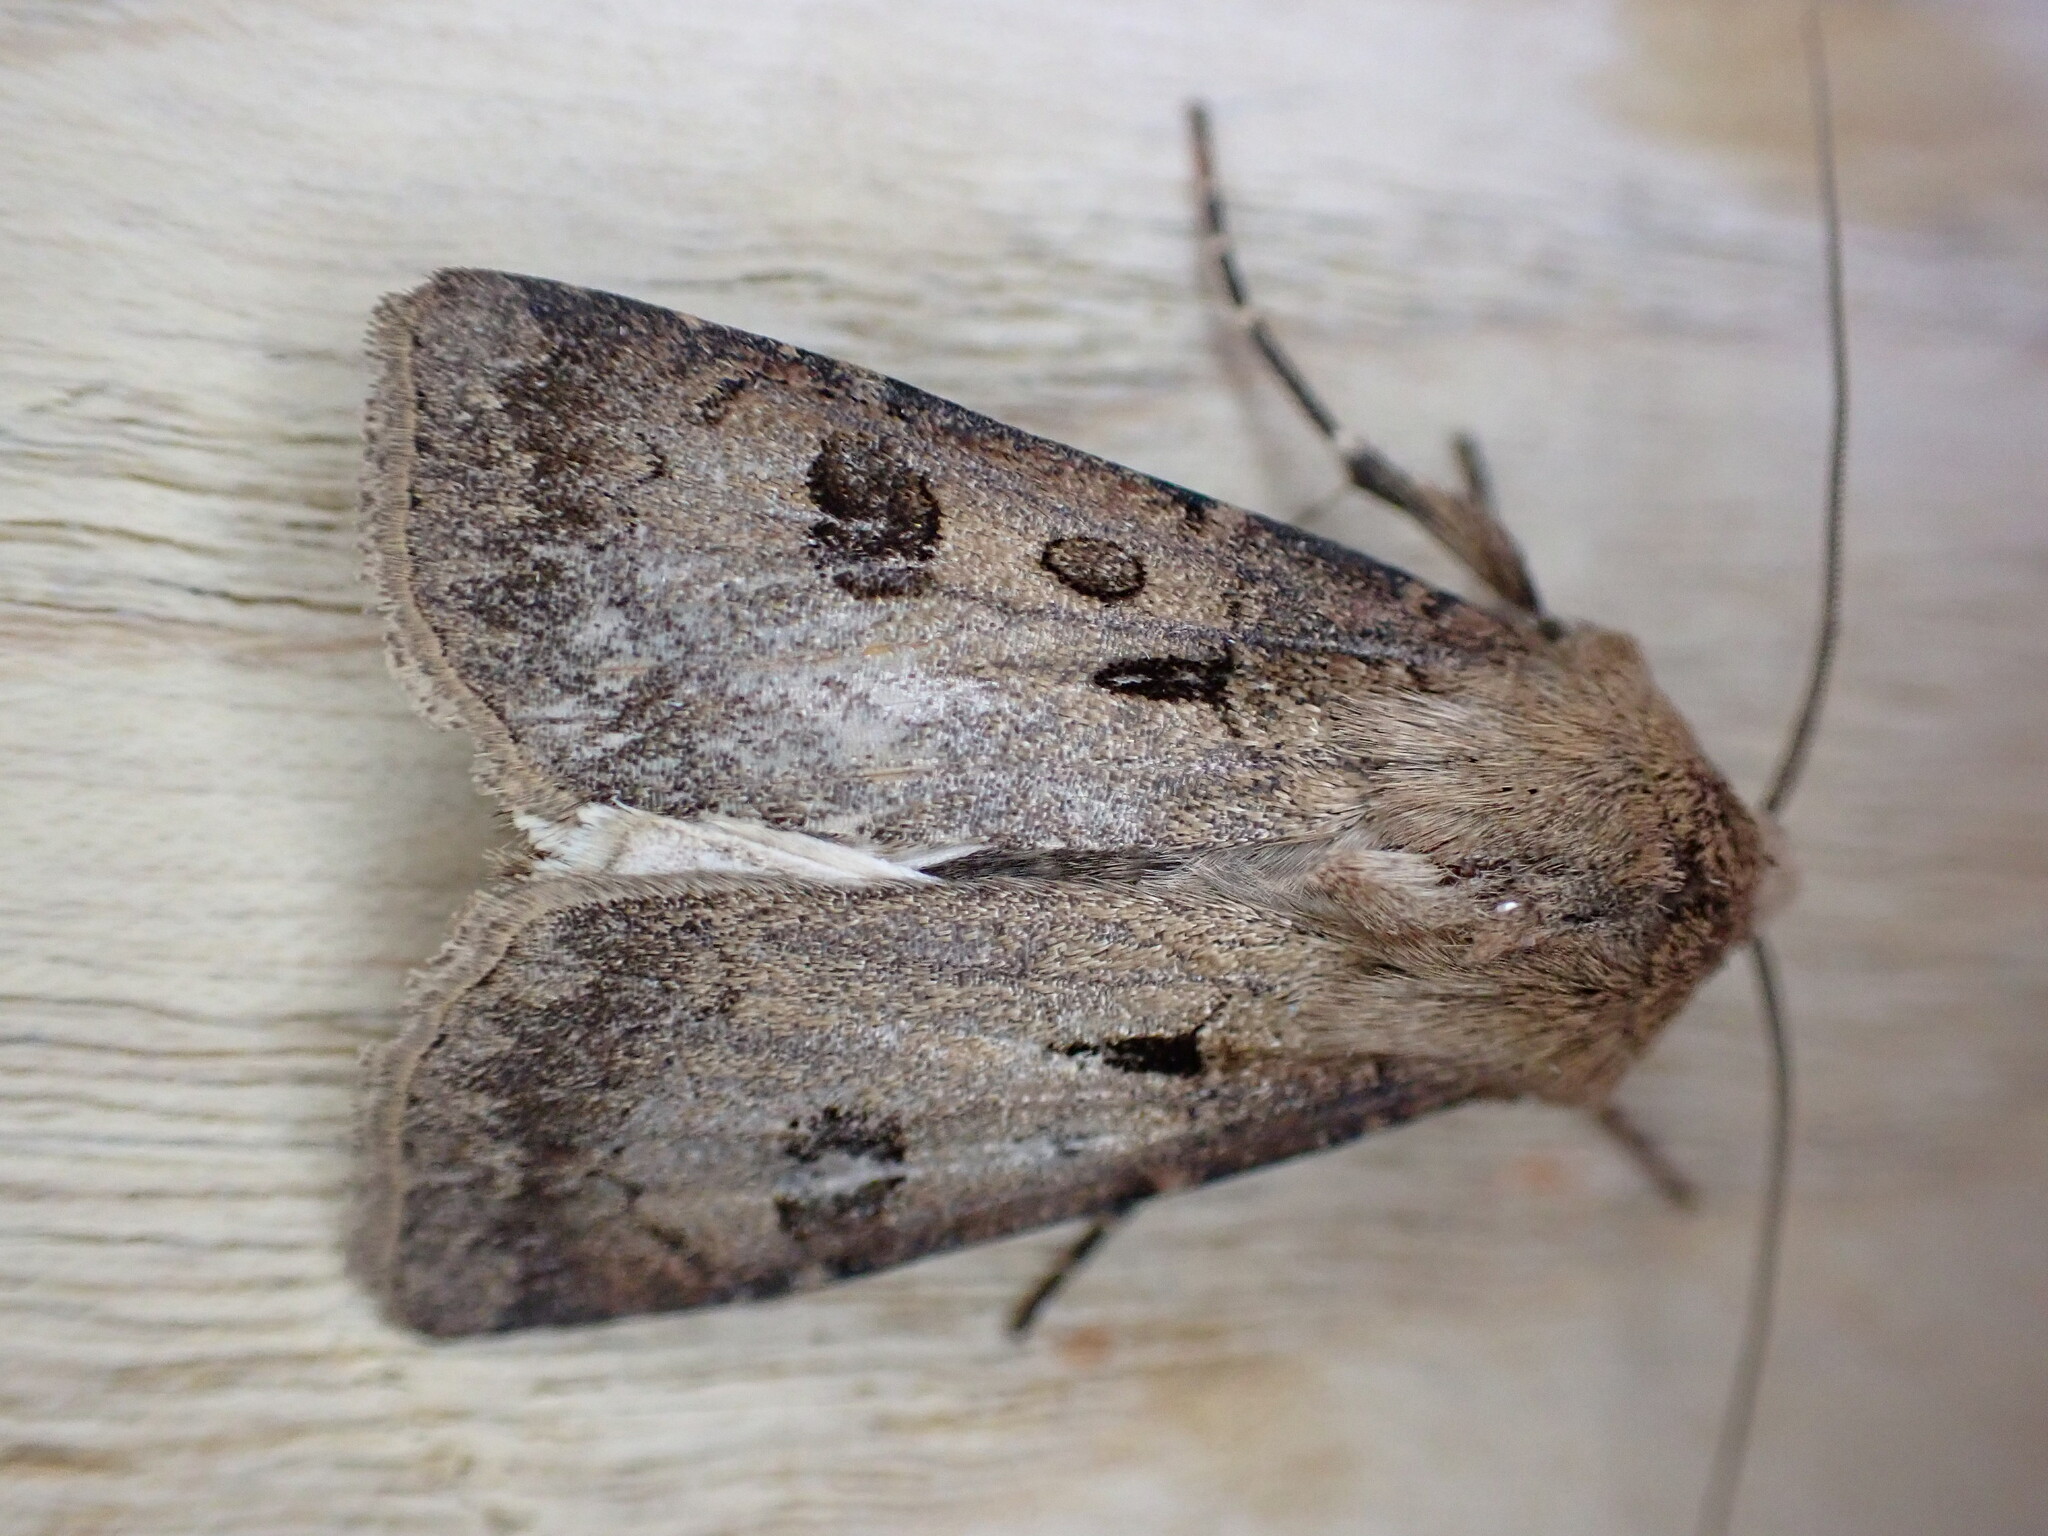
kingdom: Animalia
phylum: Arthropoda
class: Insecta
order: Lepidoptera
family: Noctuidae
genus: Agrotis
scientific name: Agrotis exclamationis
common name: Heart and dart
